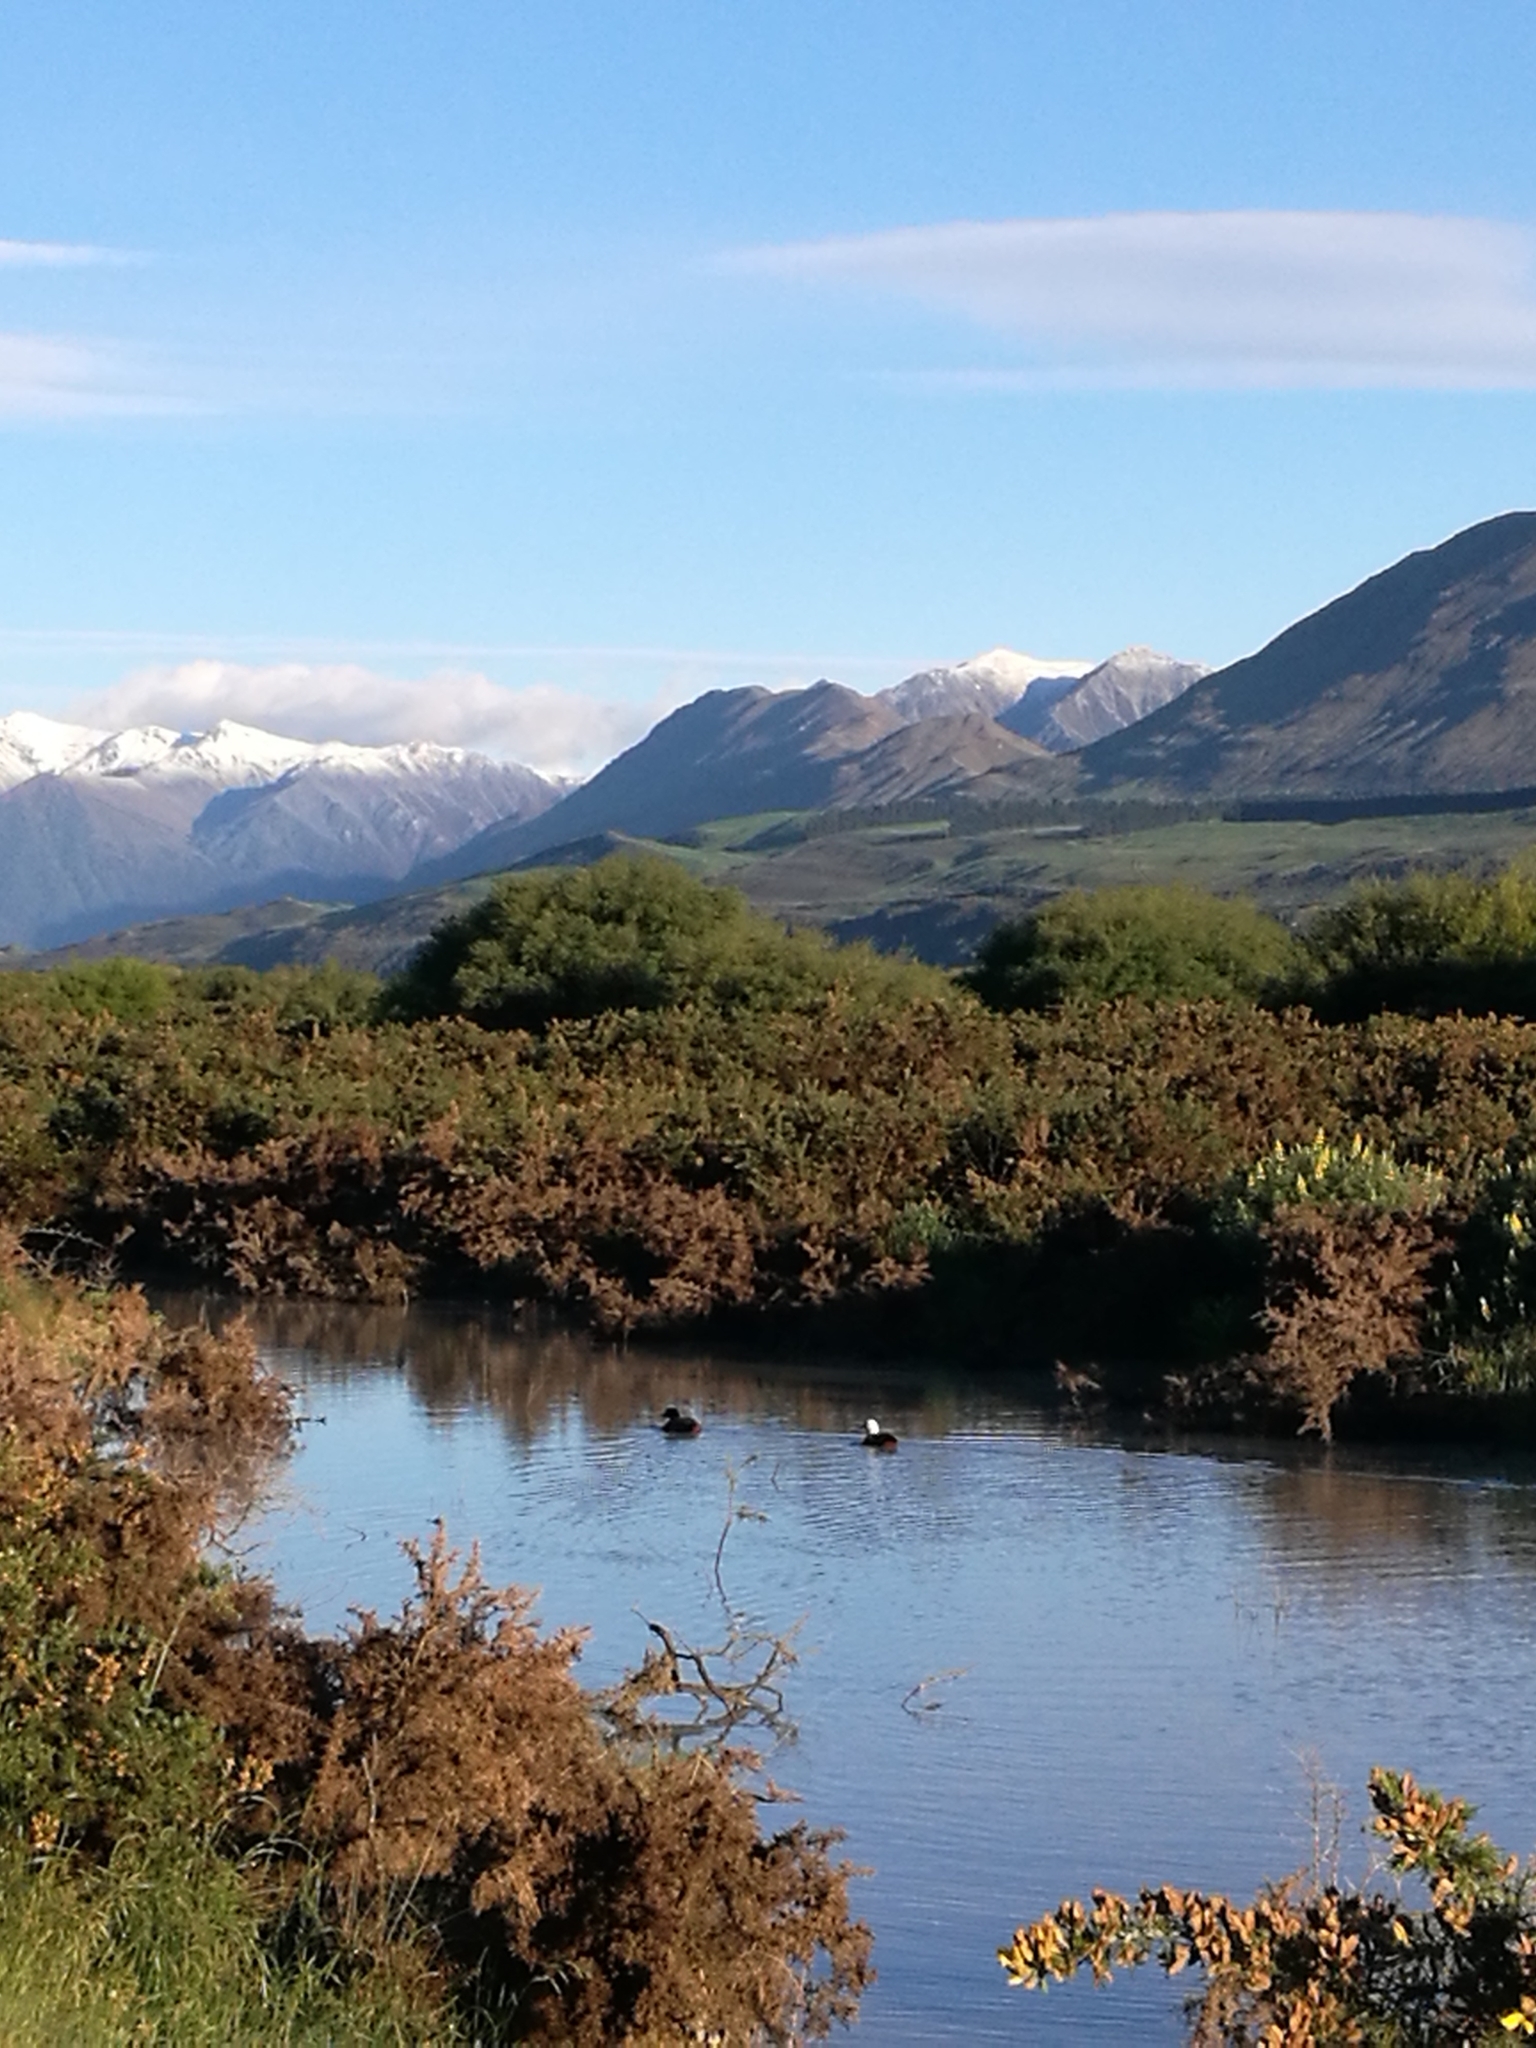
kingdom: Animalia
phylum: Chordata
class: Aves
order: Anseriformes
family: Anatidae
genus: Tadorna
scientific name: Tadorna variegata
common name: Paradise shelduck
